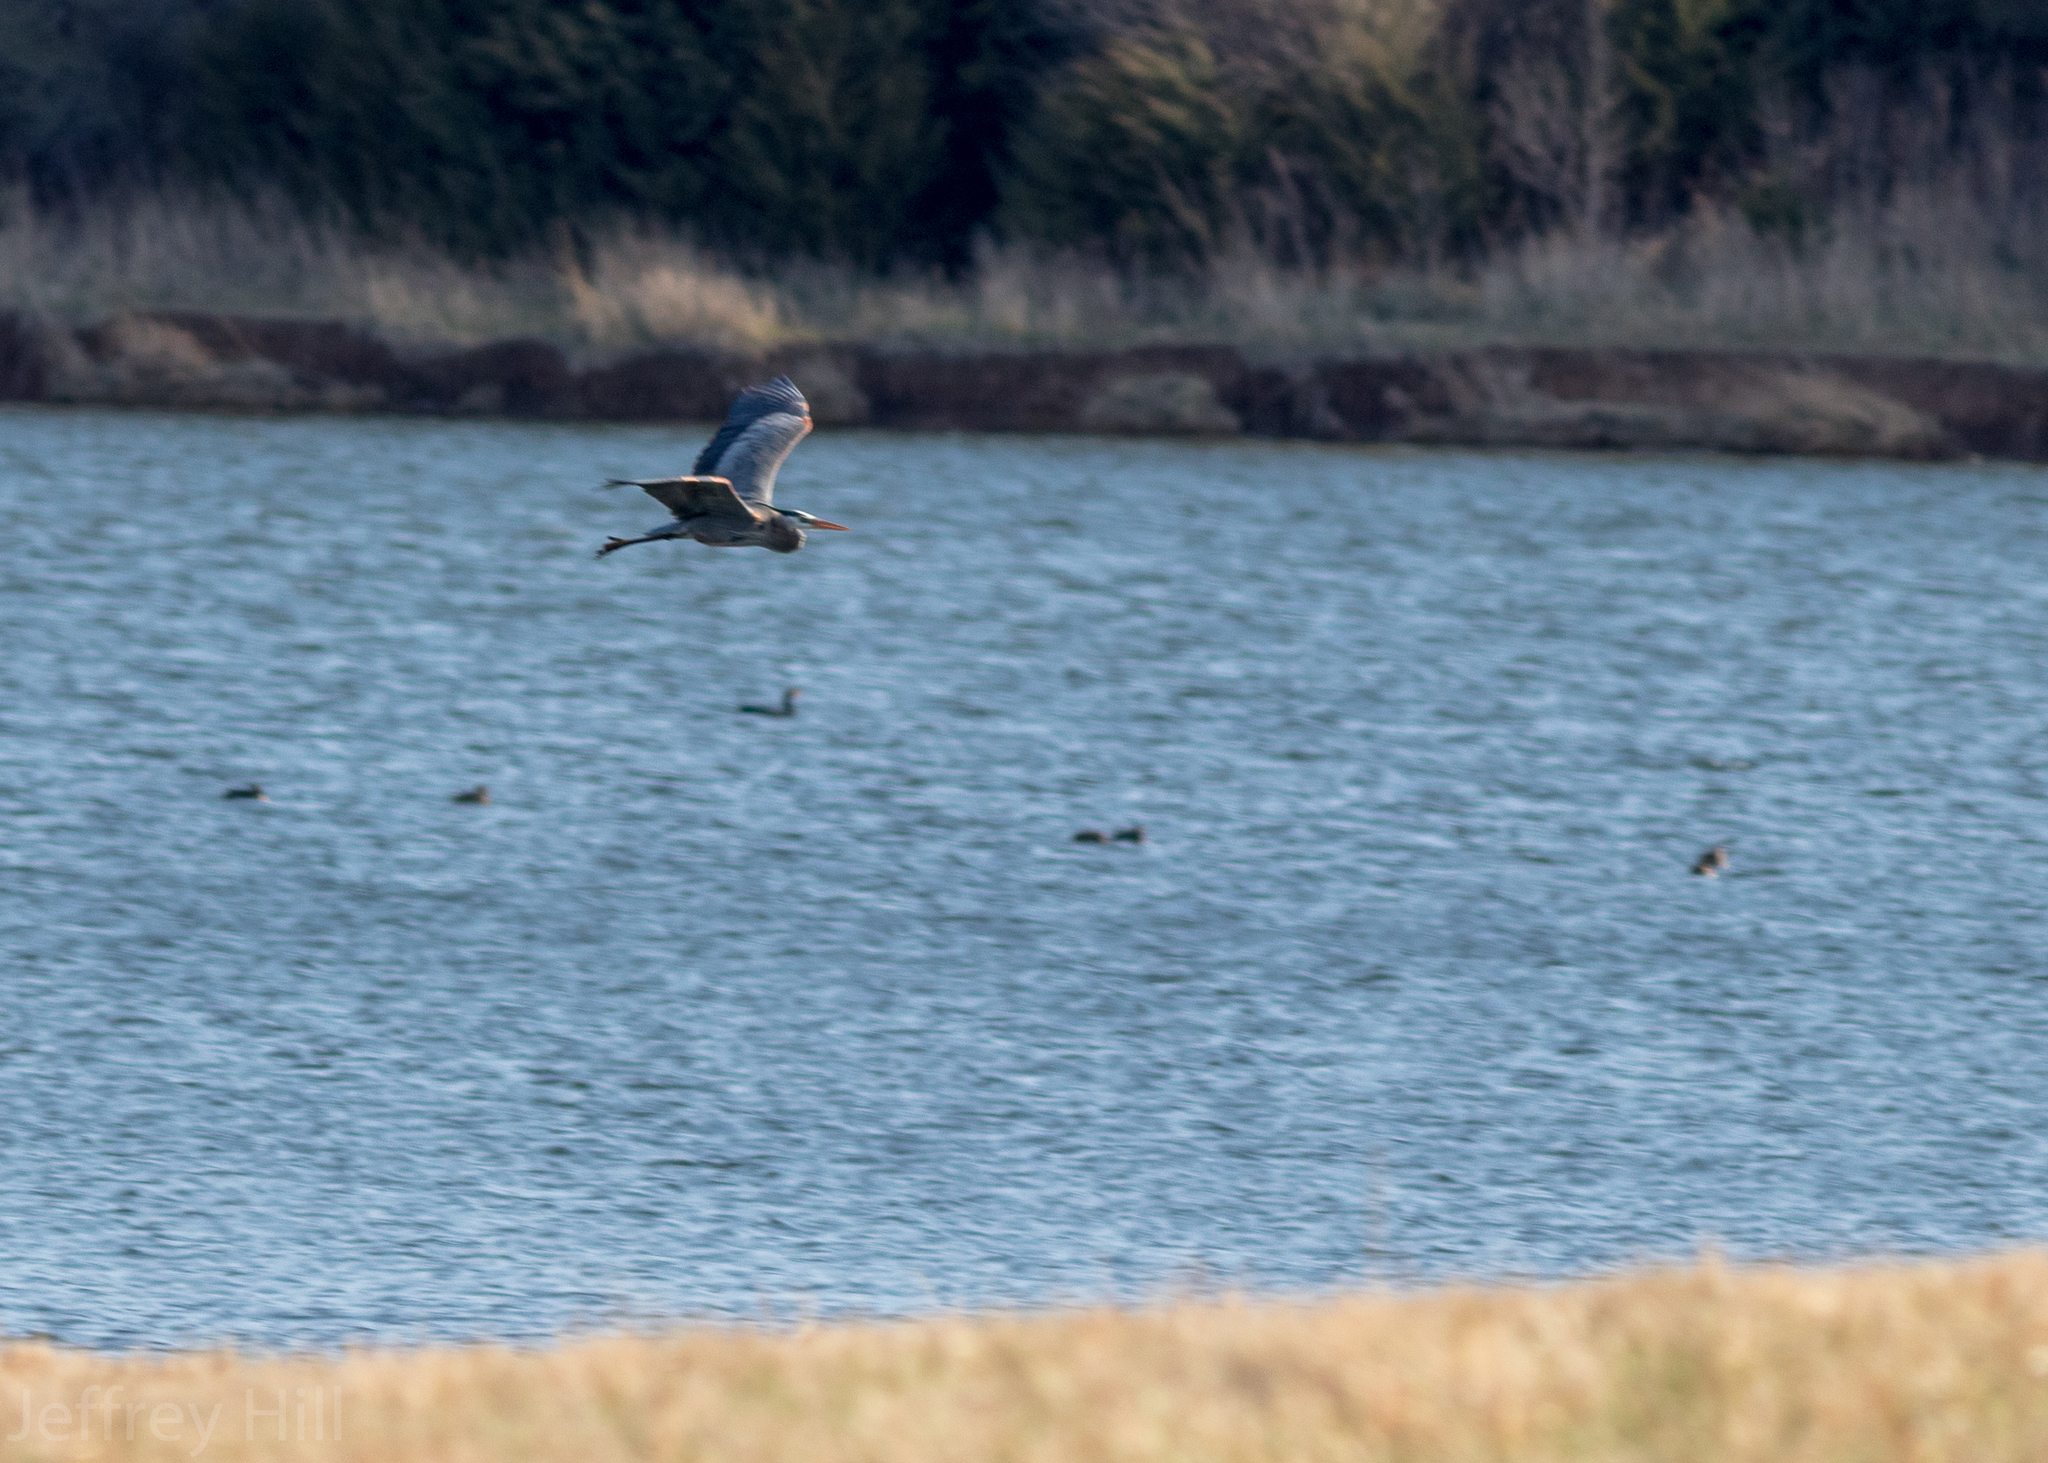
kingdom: Animalia
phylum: Chordata
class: Aves
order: Pelecaniformes
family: Ardeidae
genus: Ardea
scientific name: Ardea herodias
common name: Great blue heron
